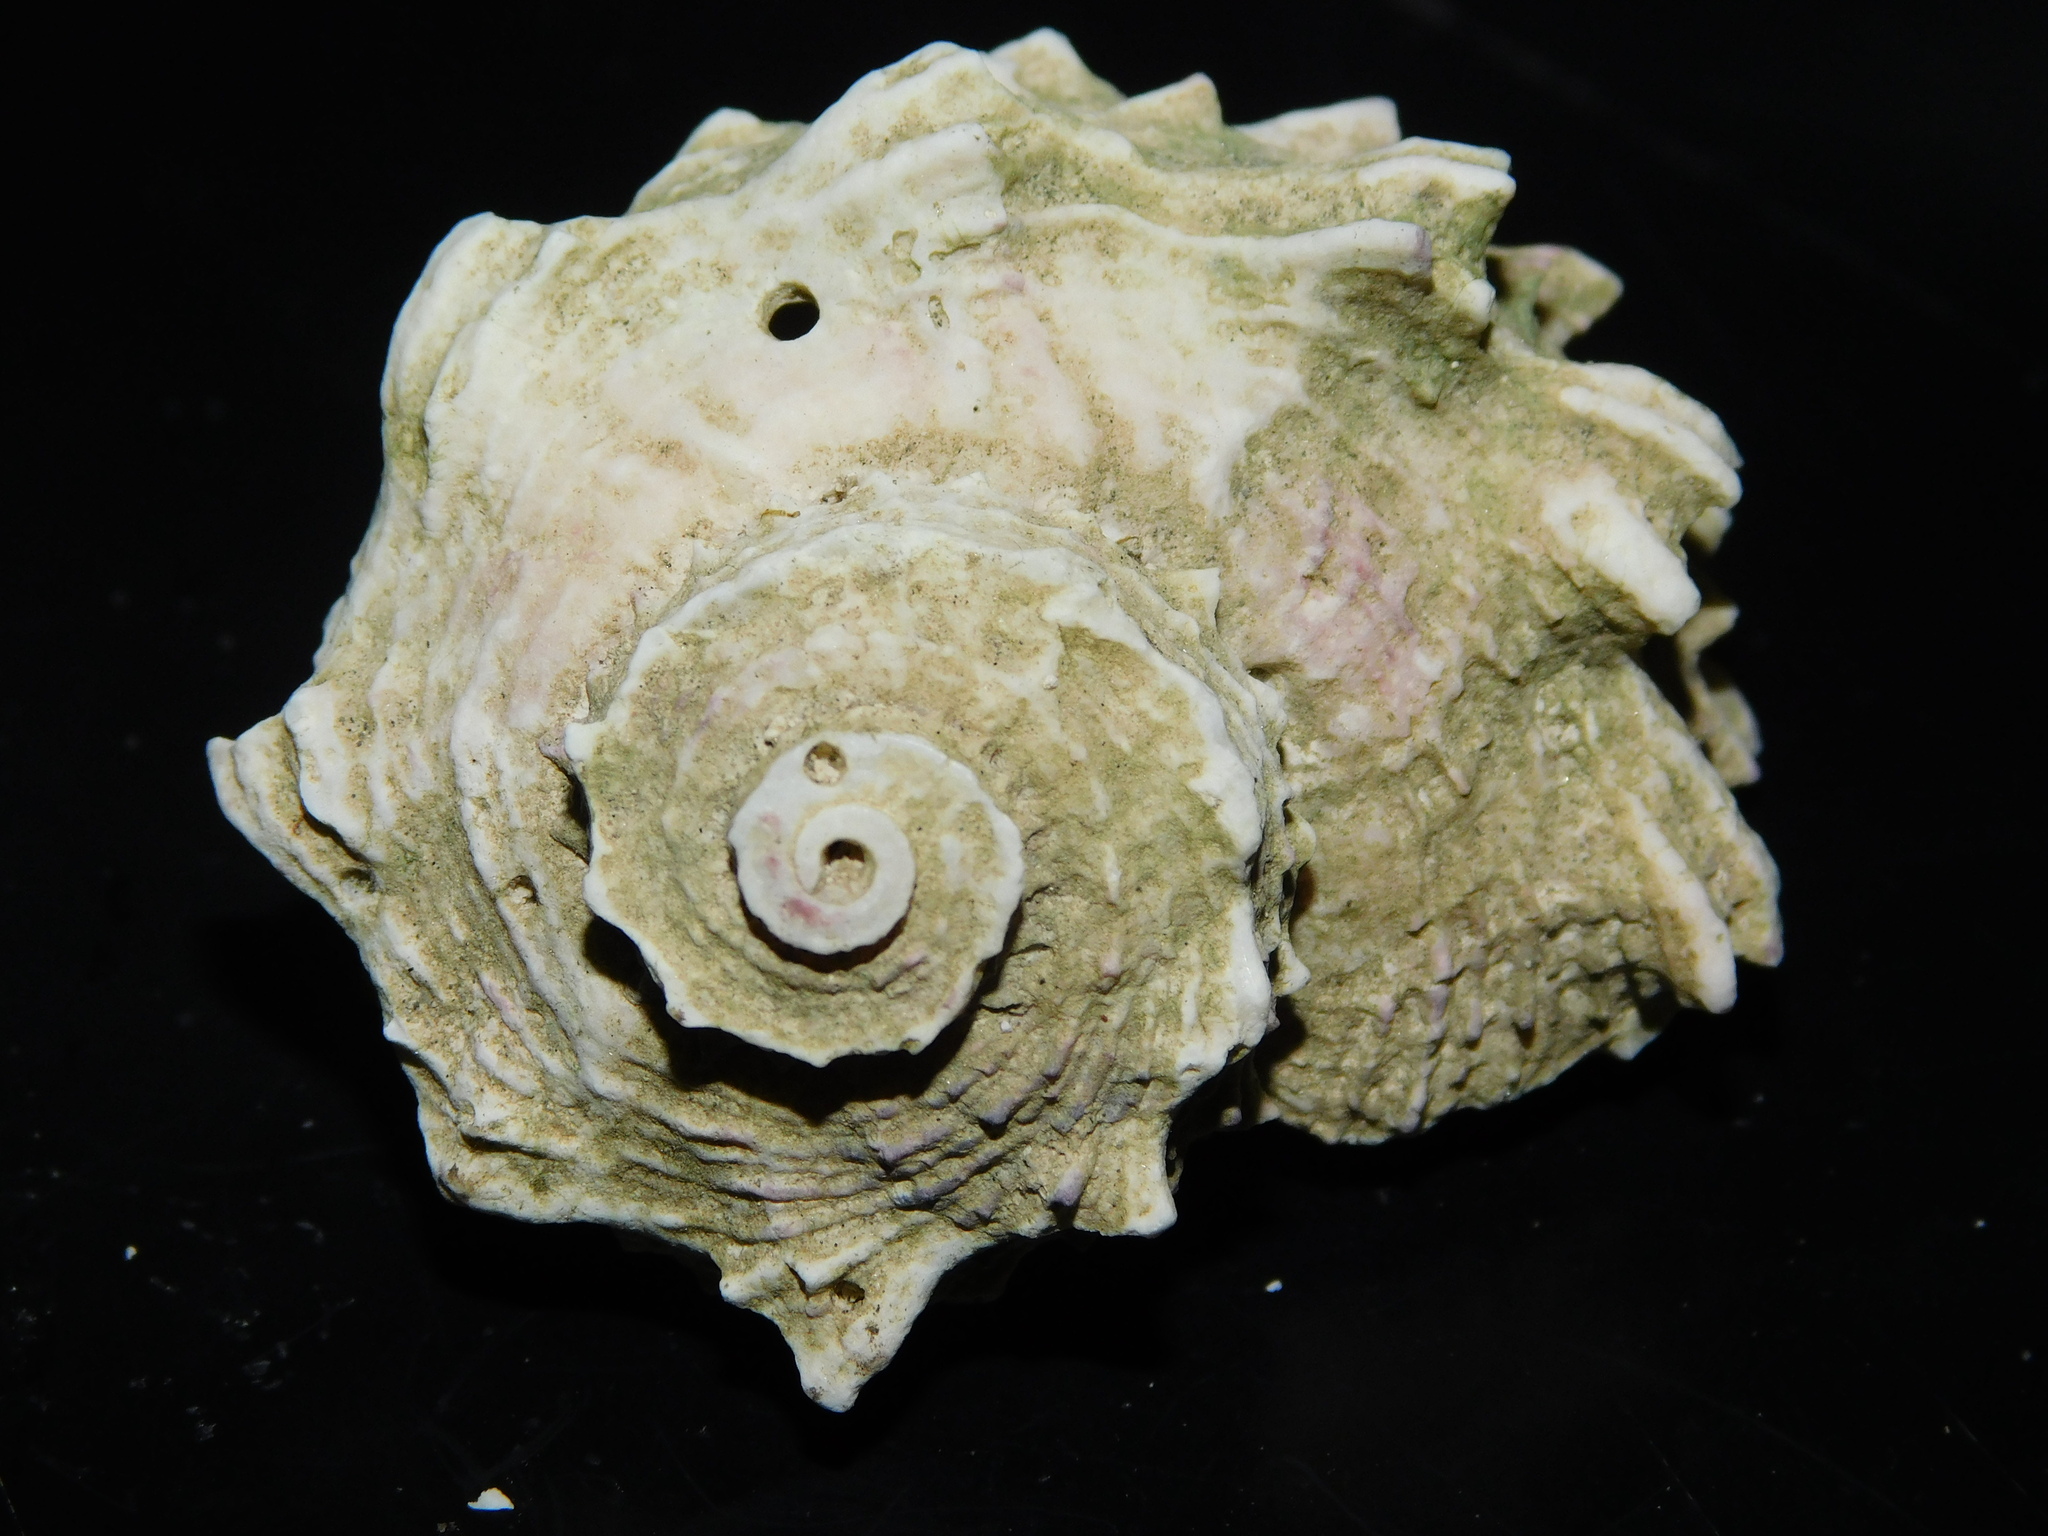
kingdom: Animalia
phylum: Mollusca
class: Gastropoda
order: Trochida
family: Angariidae
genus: Angaria
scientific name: Angaria exasperata
